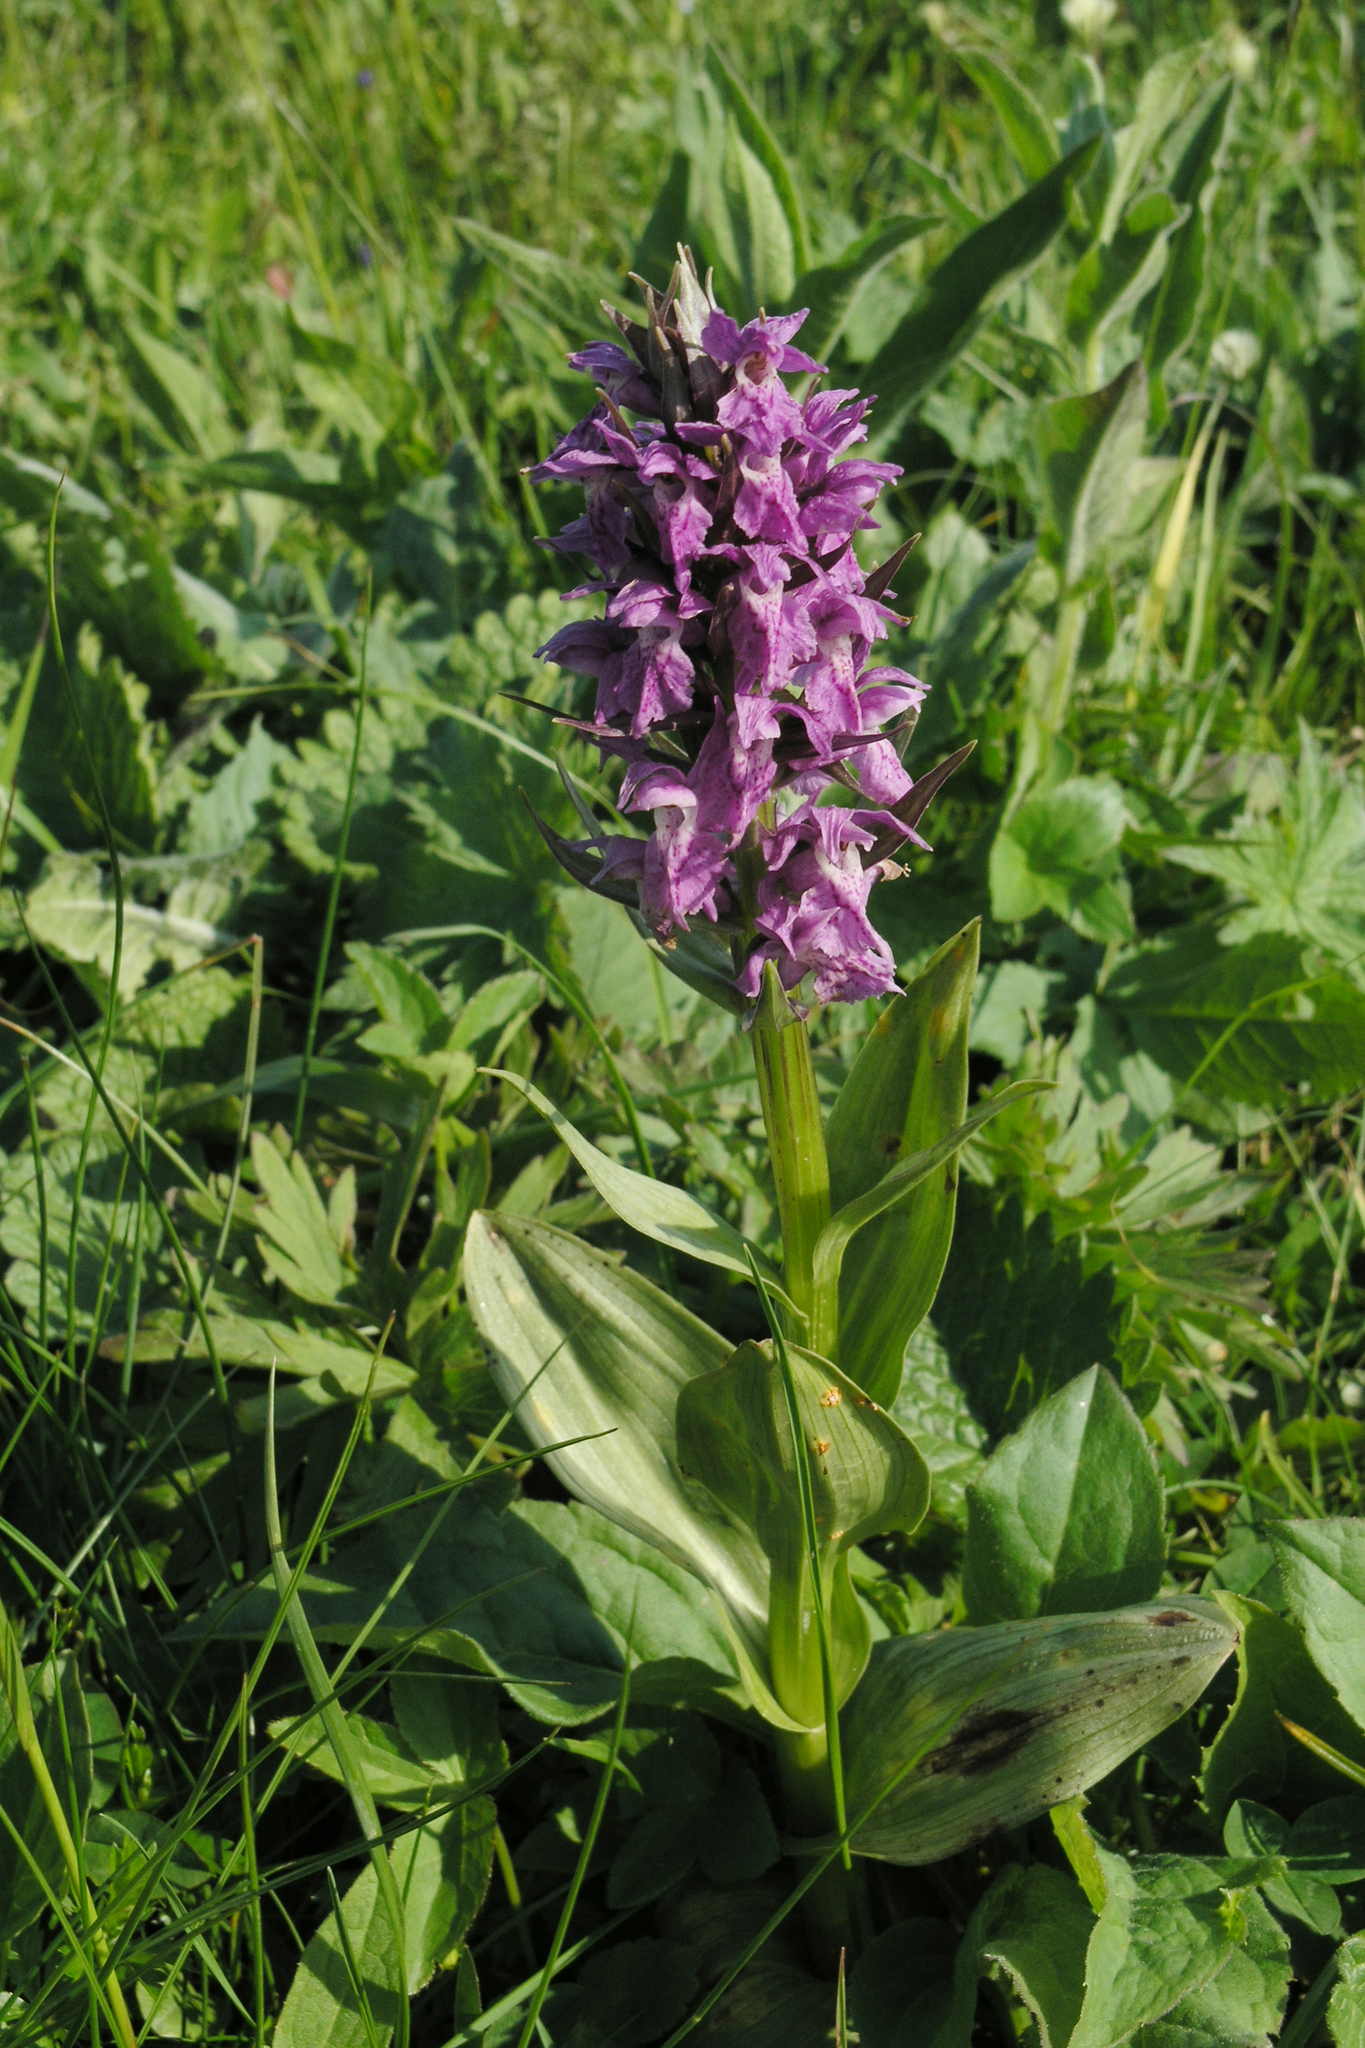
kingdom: Plantae
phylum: Tracheophyta
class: Liliopsida
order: Asparagales
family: Orchidaceae
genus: Dactylorhiza
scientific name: Dactylorhiza euxina
